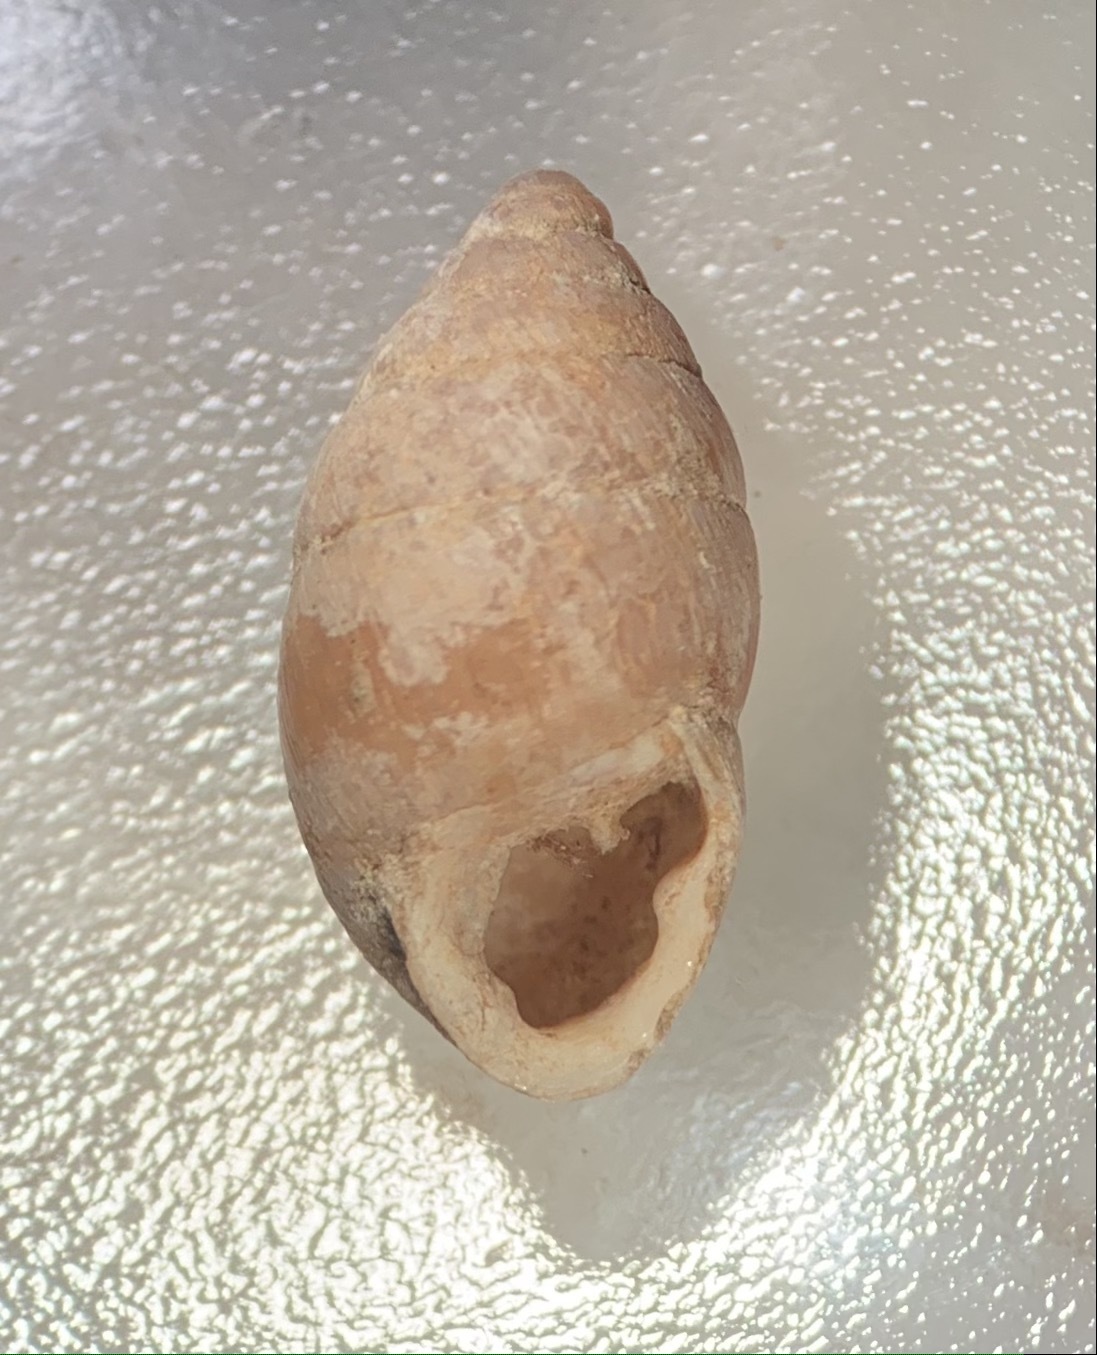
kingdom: Animalia
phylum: Mollusca
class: Gastropoda
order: Stylommatophora
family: Enidae
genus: Chondrula
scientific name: Chondrula tridens
